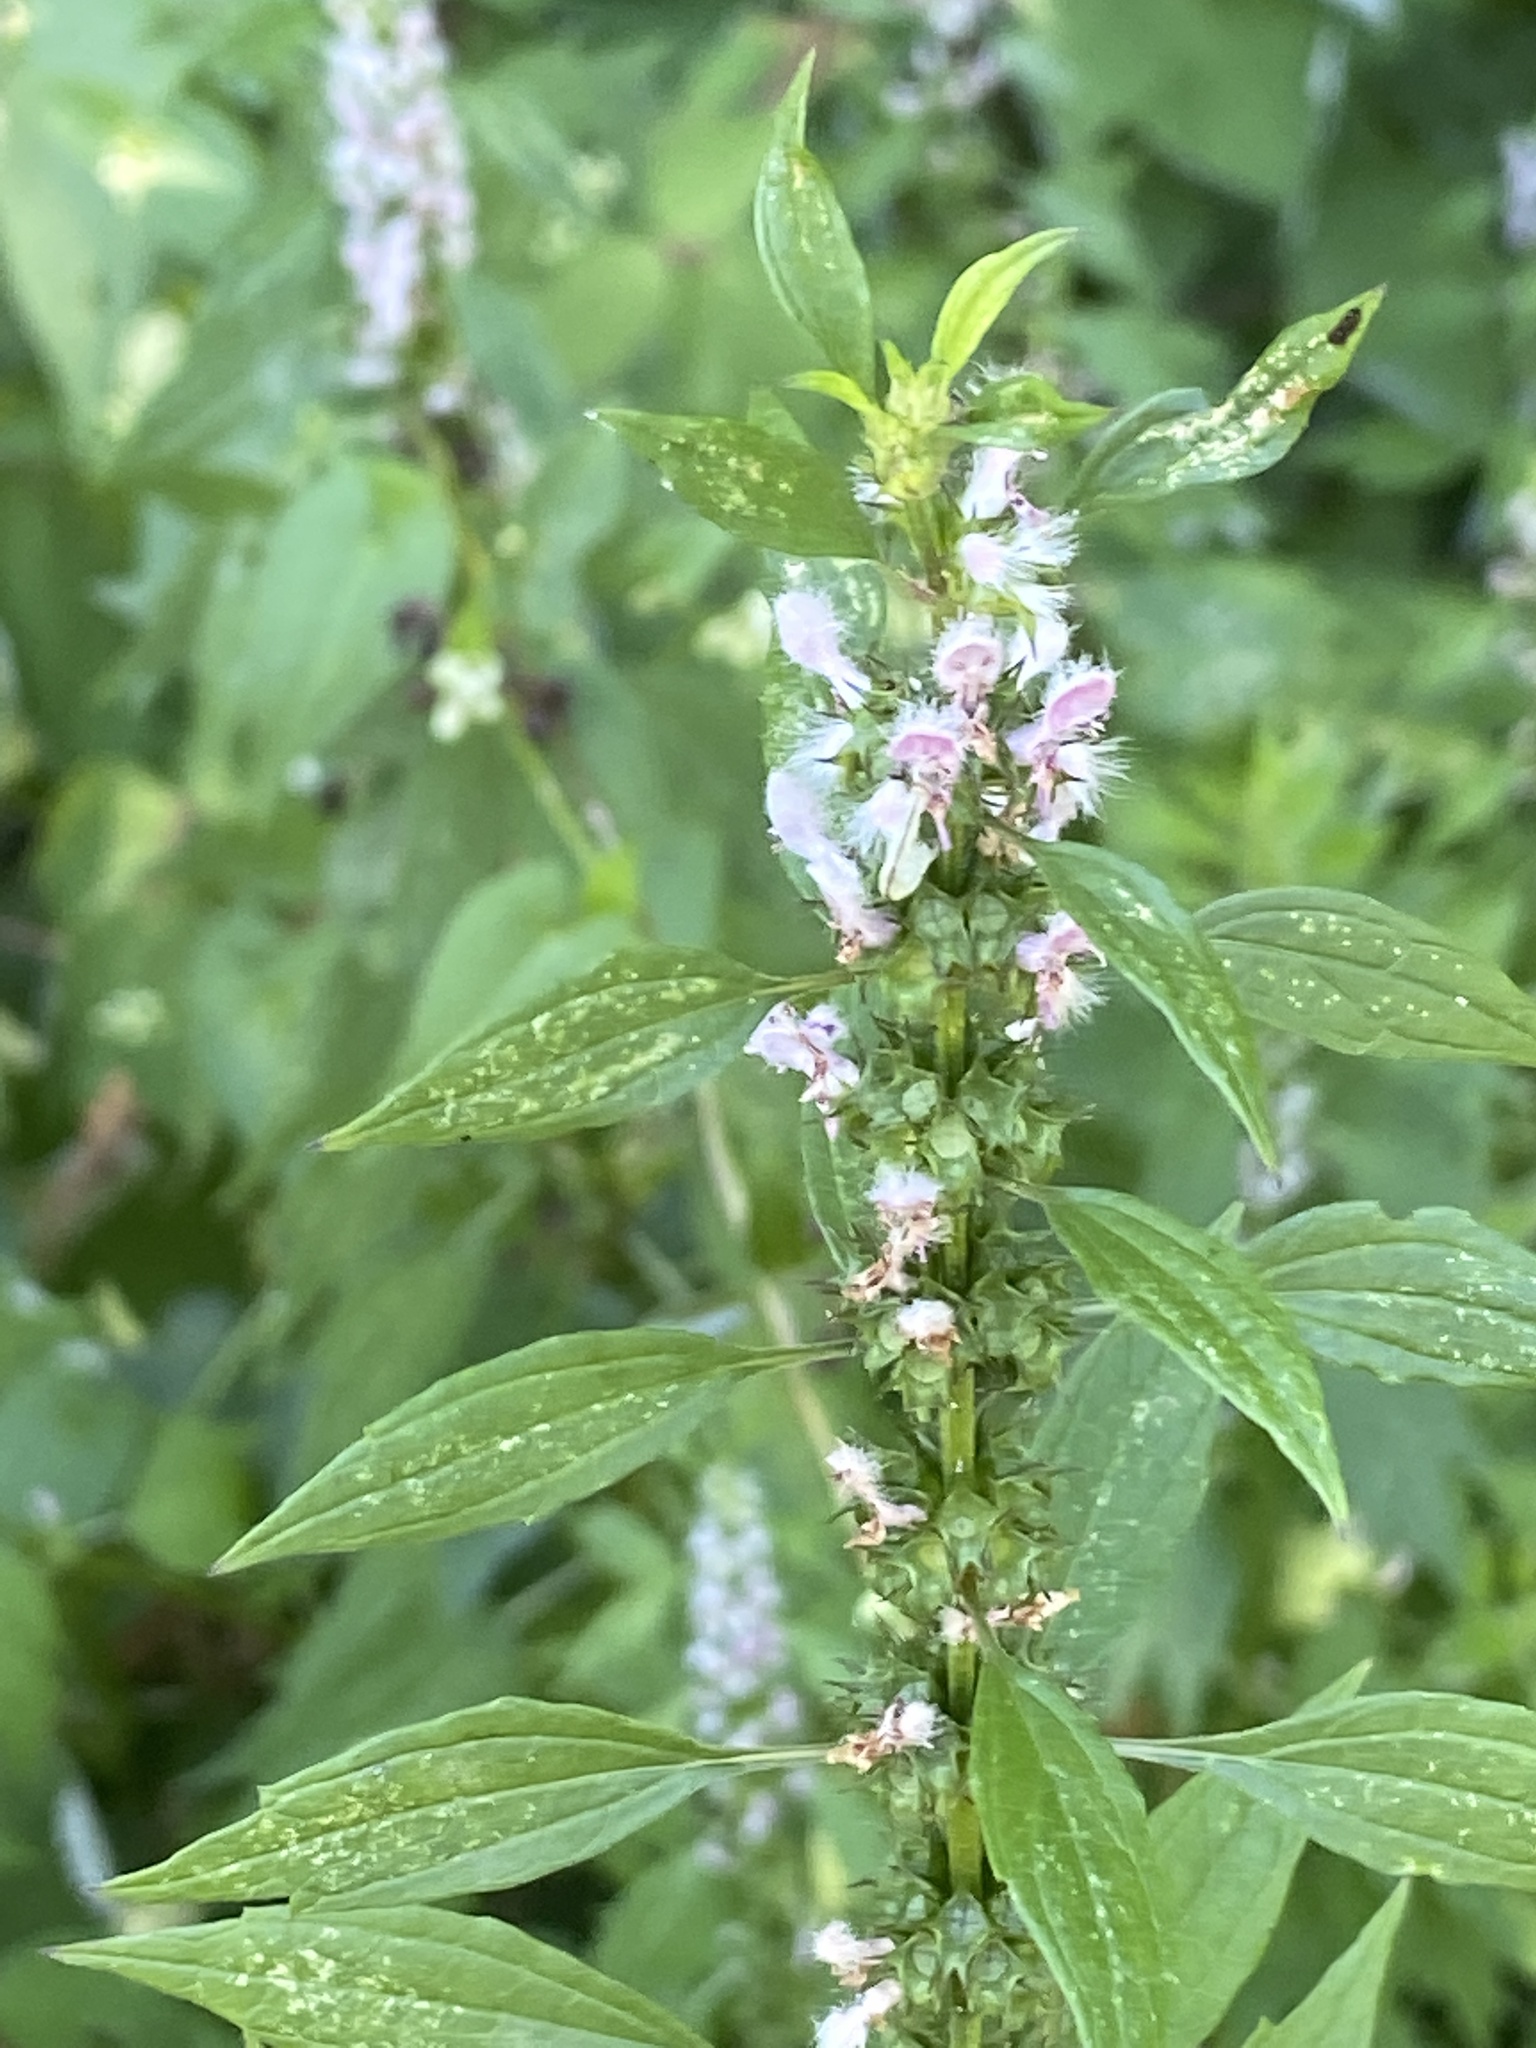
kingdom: Plantae
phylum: Tracheophyta
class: Magnoliopsida
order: Lamiales
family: Lamiaceae
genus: Leonurus
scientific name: Leonurus cardiaca
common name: Motherwort
